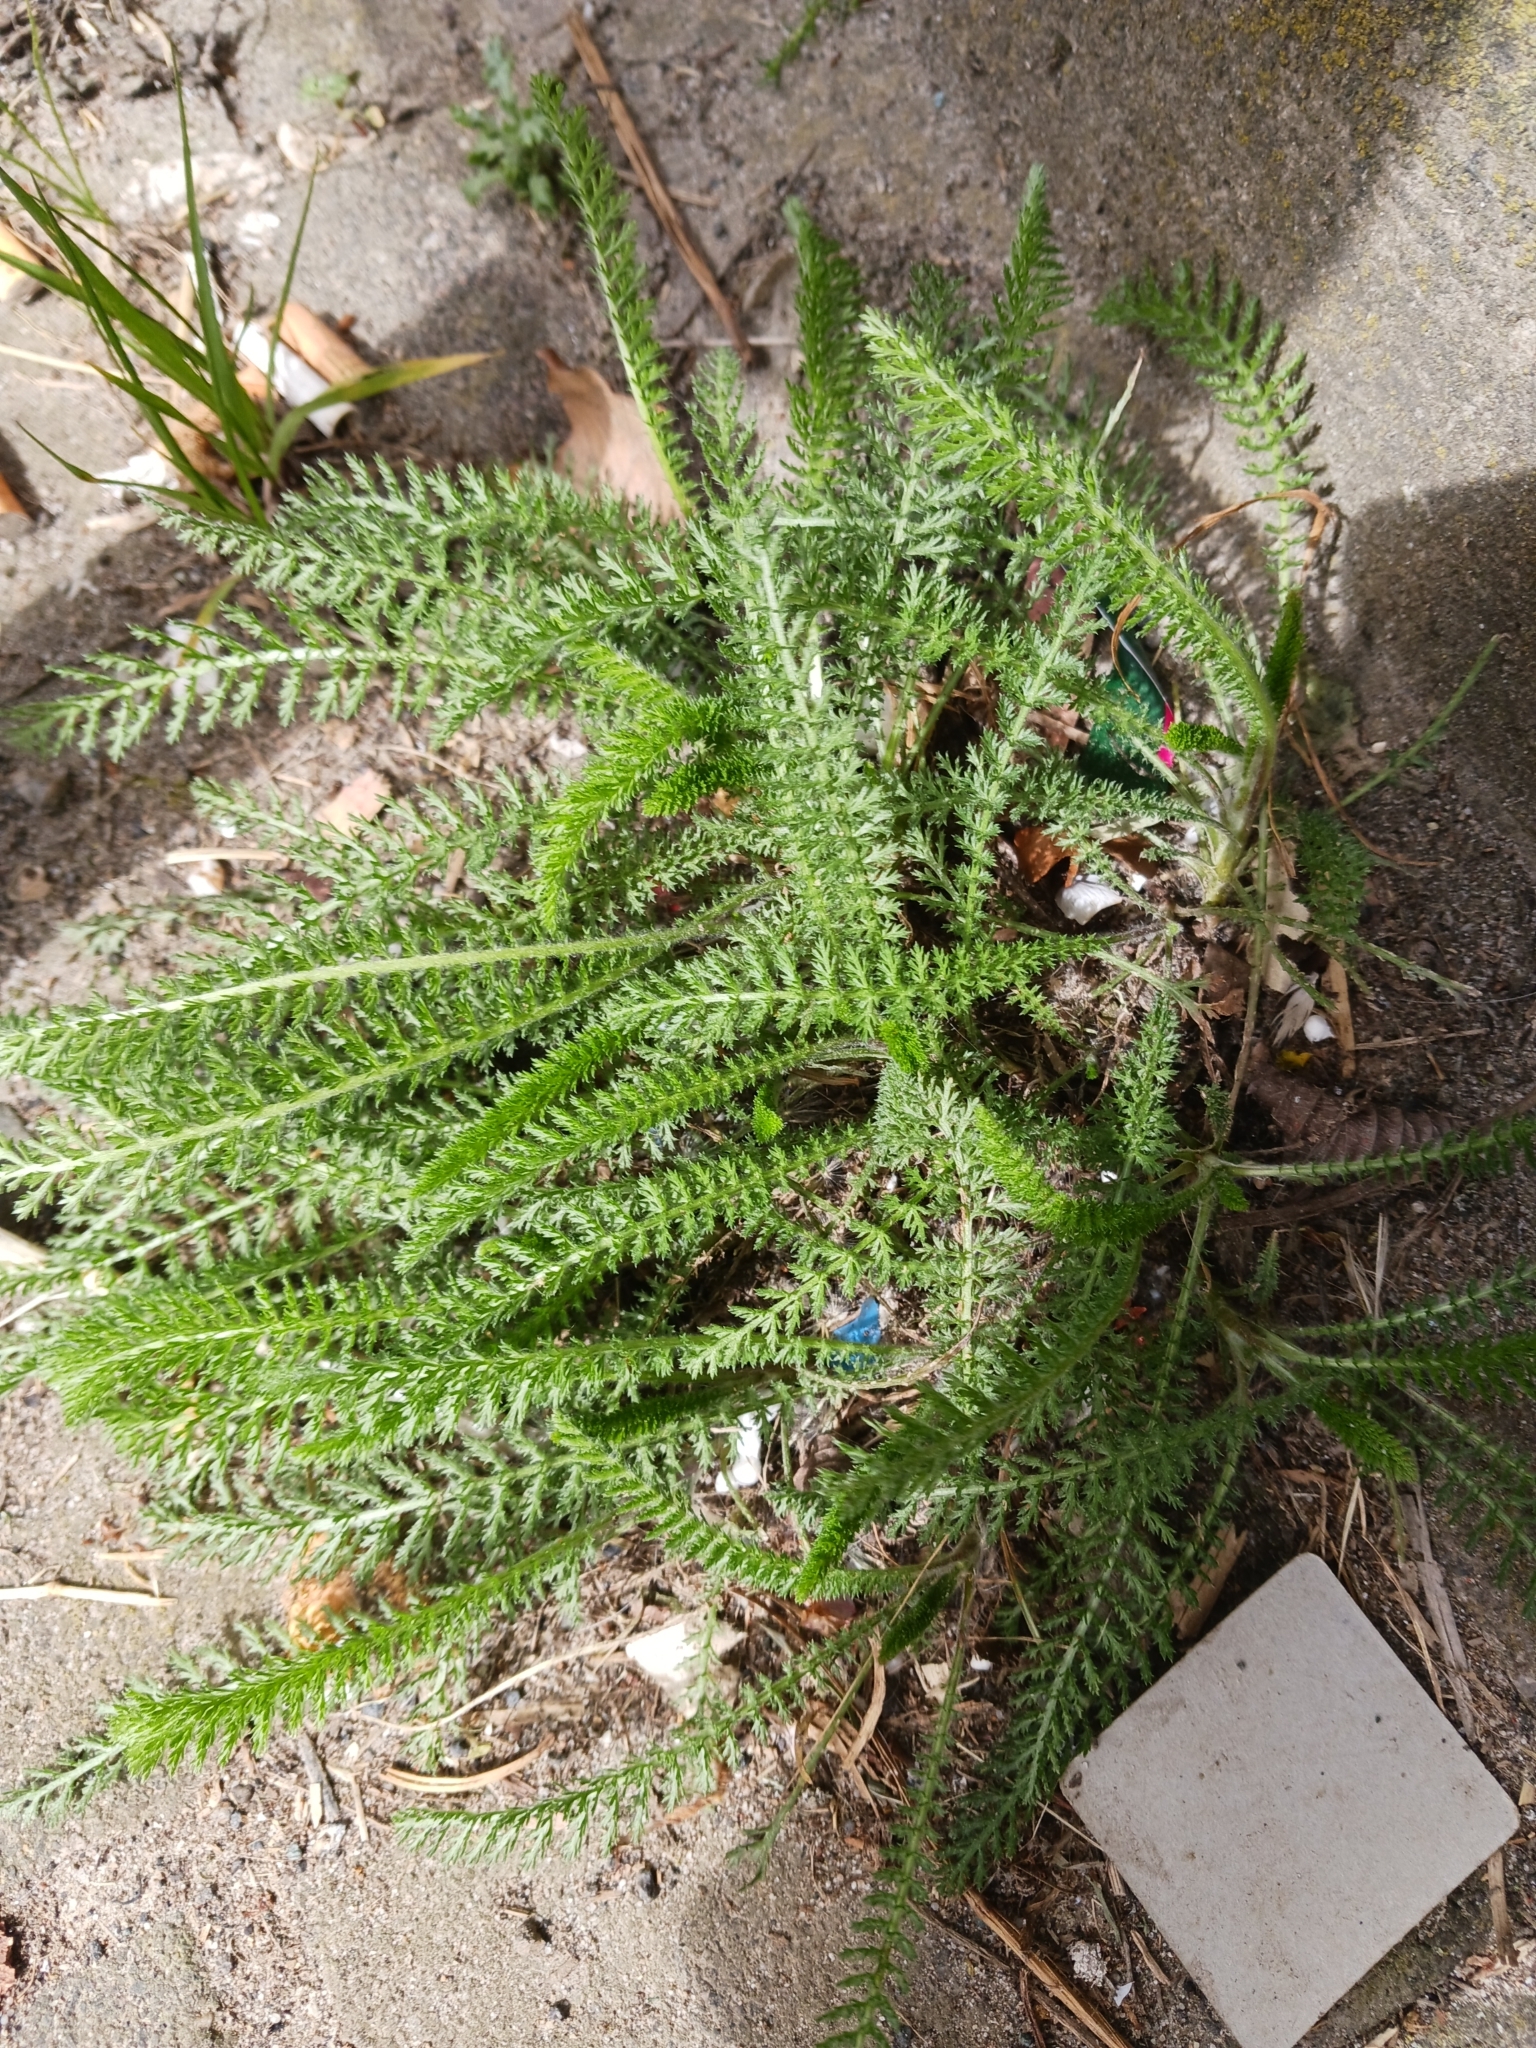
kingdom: Plantae
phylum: Tracheophyta
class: Magnoliopsida
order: Asterales
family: Asteraceae
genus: Achillea
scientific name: Achillea millefolium
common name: Yarrow
